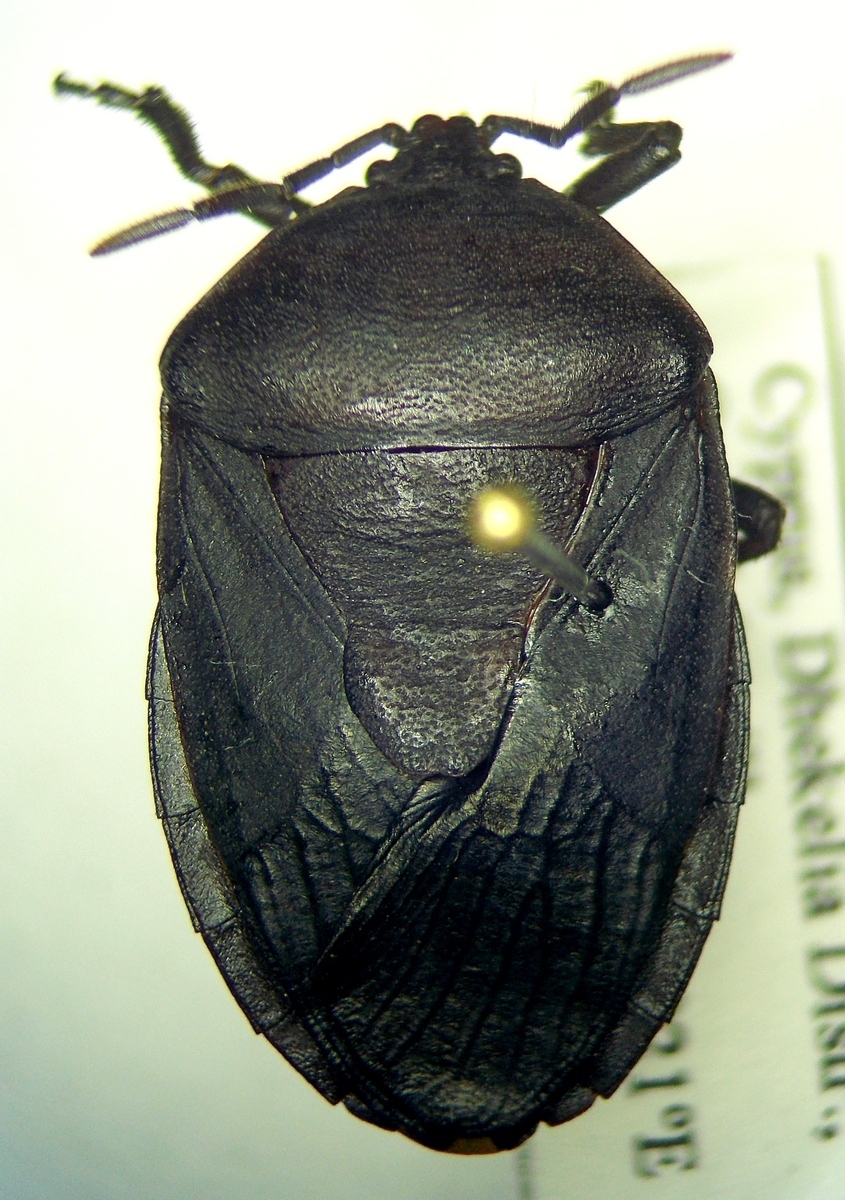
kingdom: Animalia
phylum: Arthropoda
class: Insecta
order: Hemiptera
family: Dinidoridae
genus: Coridius
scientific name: Coridius viduatus
